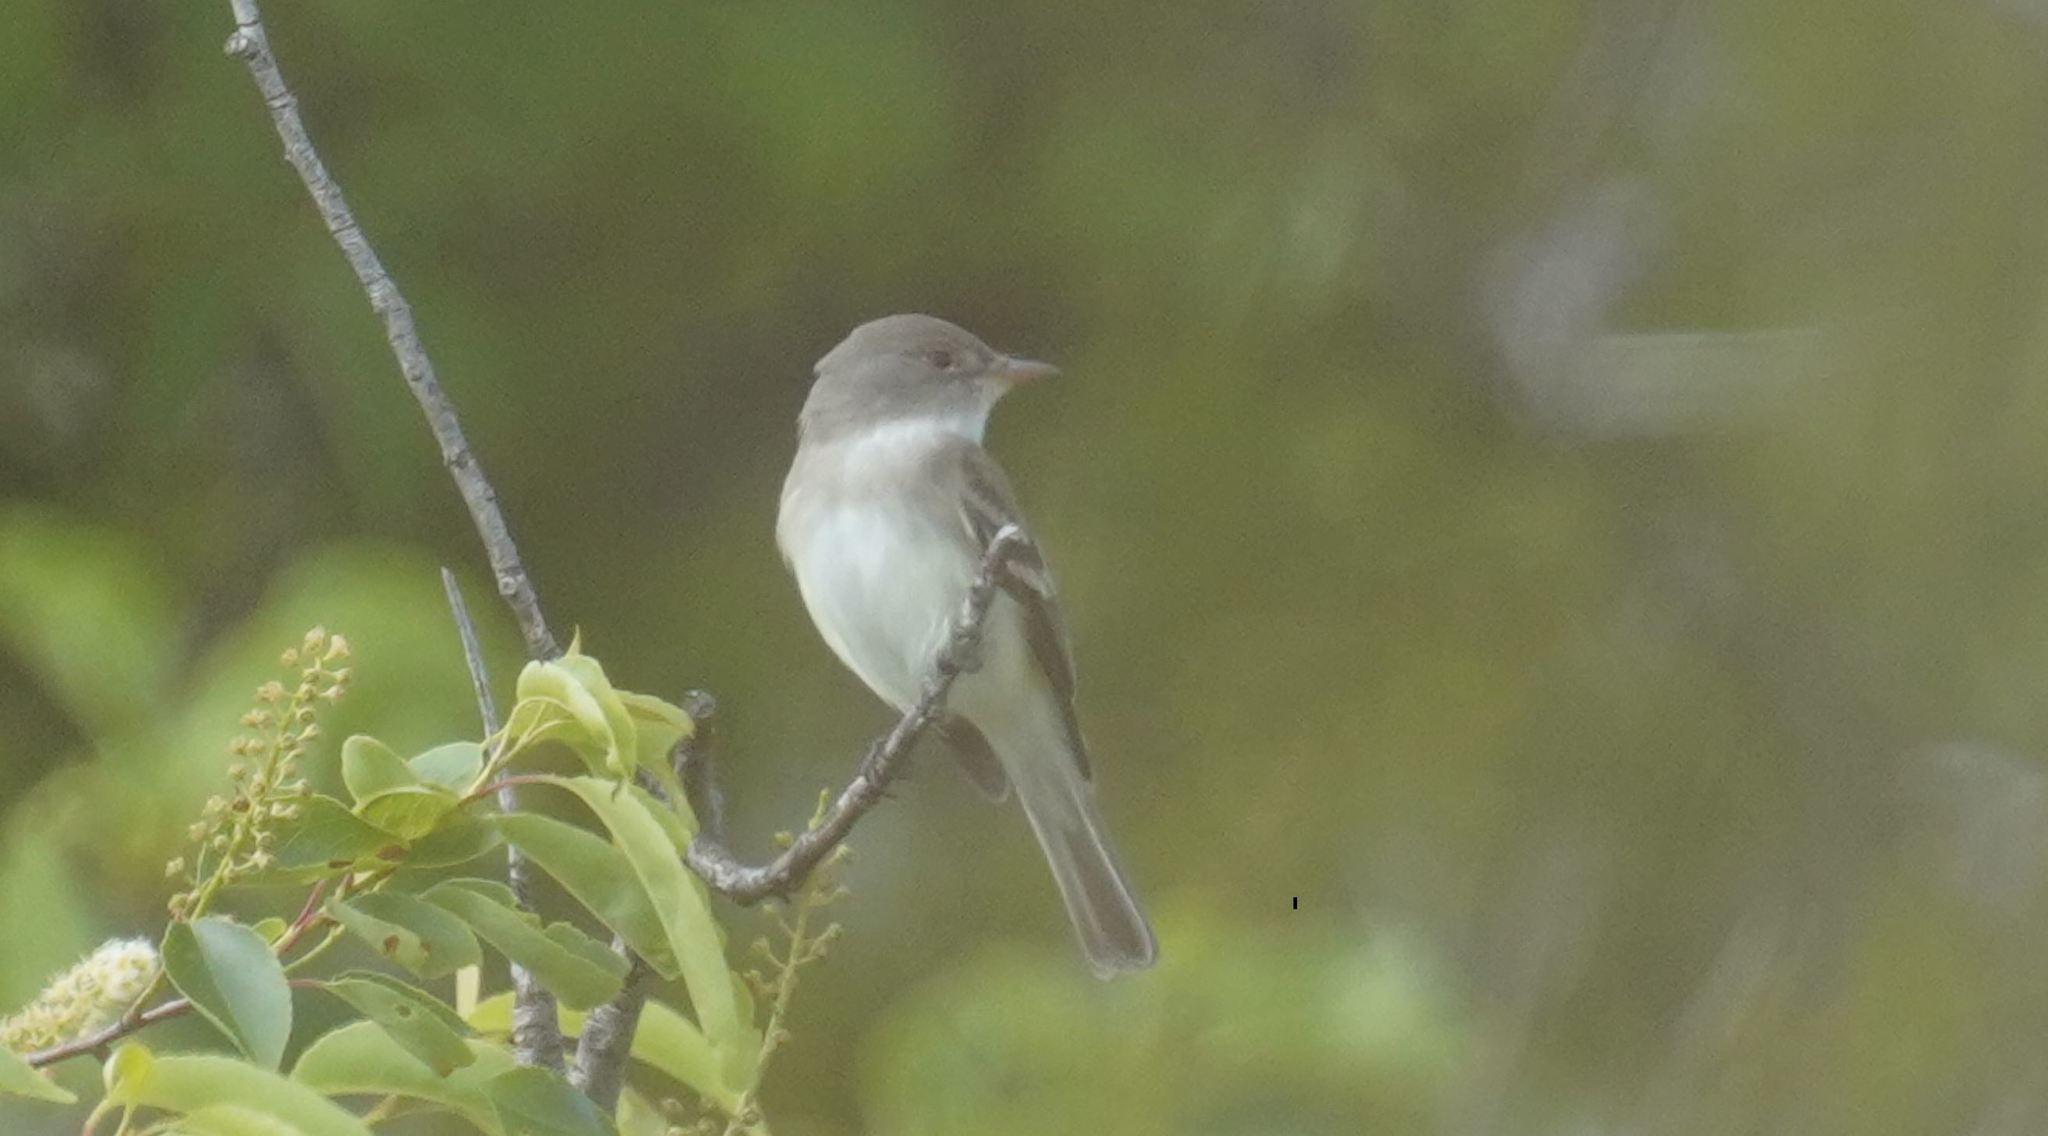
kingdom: Animalia
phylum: Chordata
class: Aves
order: Passeriformes
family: Tyrannidae
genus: Empidonax
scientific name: Empidonax traillii
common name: Willow flycatcher
